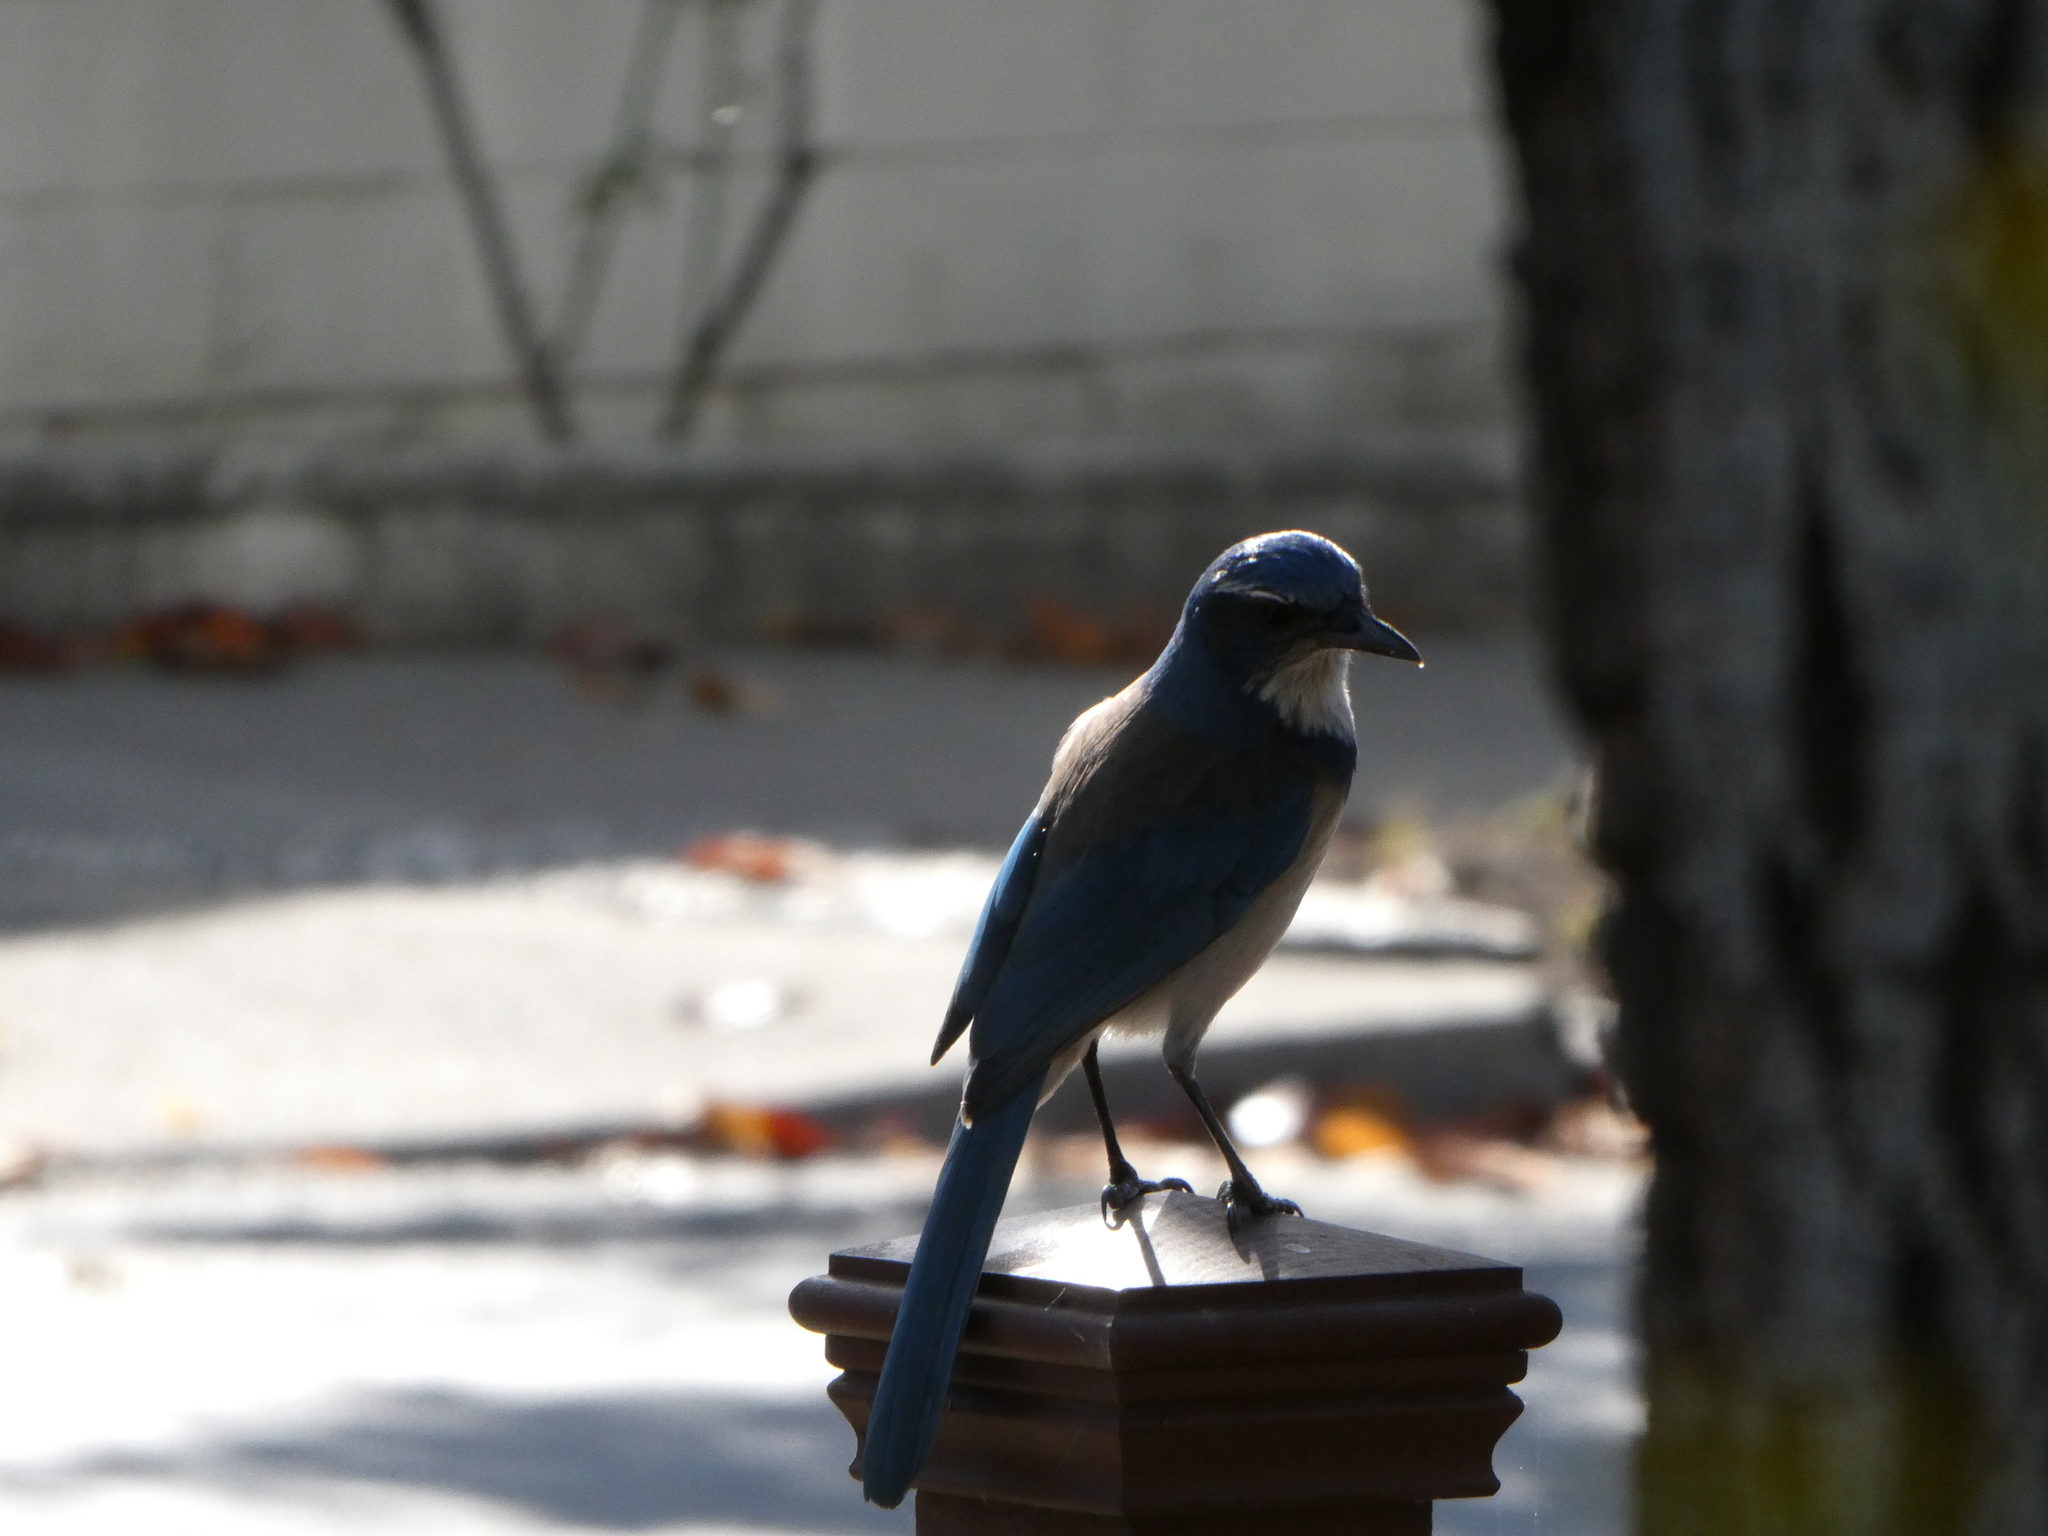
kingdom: Animalia
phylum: Chordata
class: Aves
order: Passeriformes
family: Corvidae
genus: Aphelocoma
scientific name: Aphelocoma californica
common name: California scrub-jay
